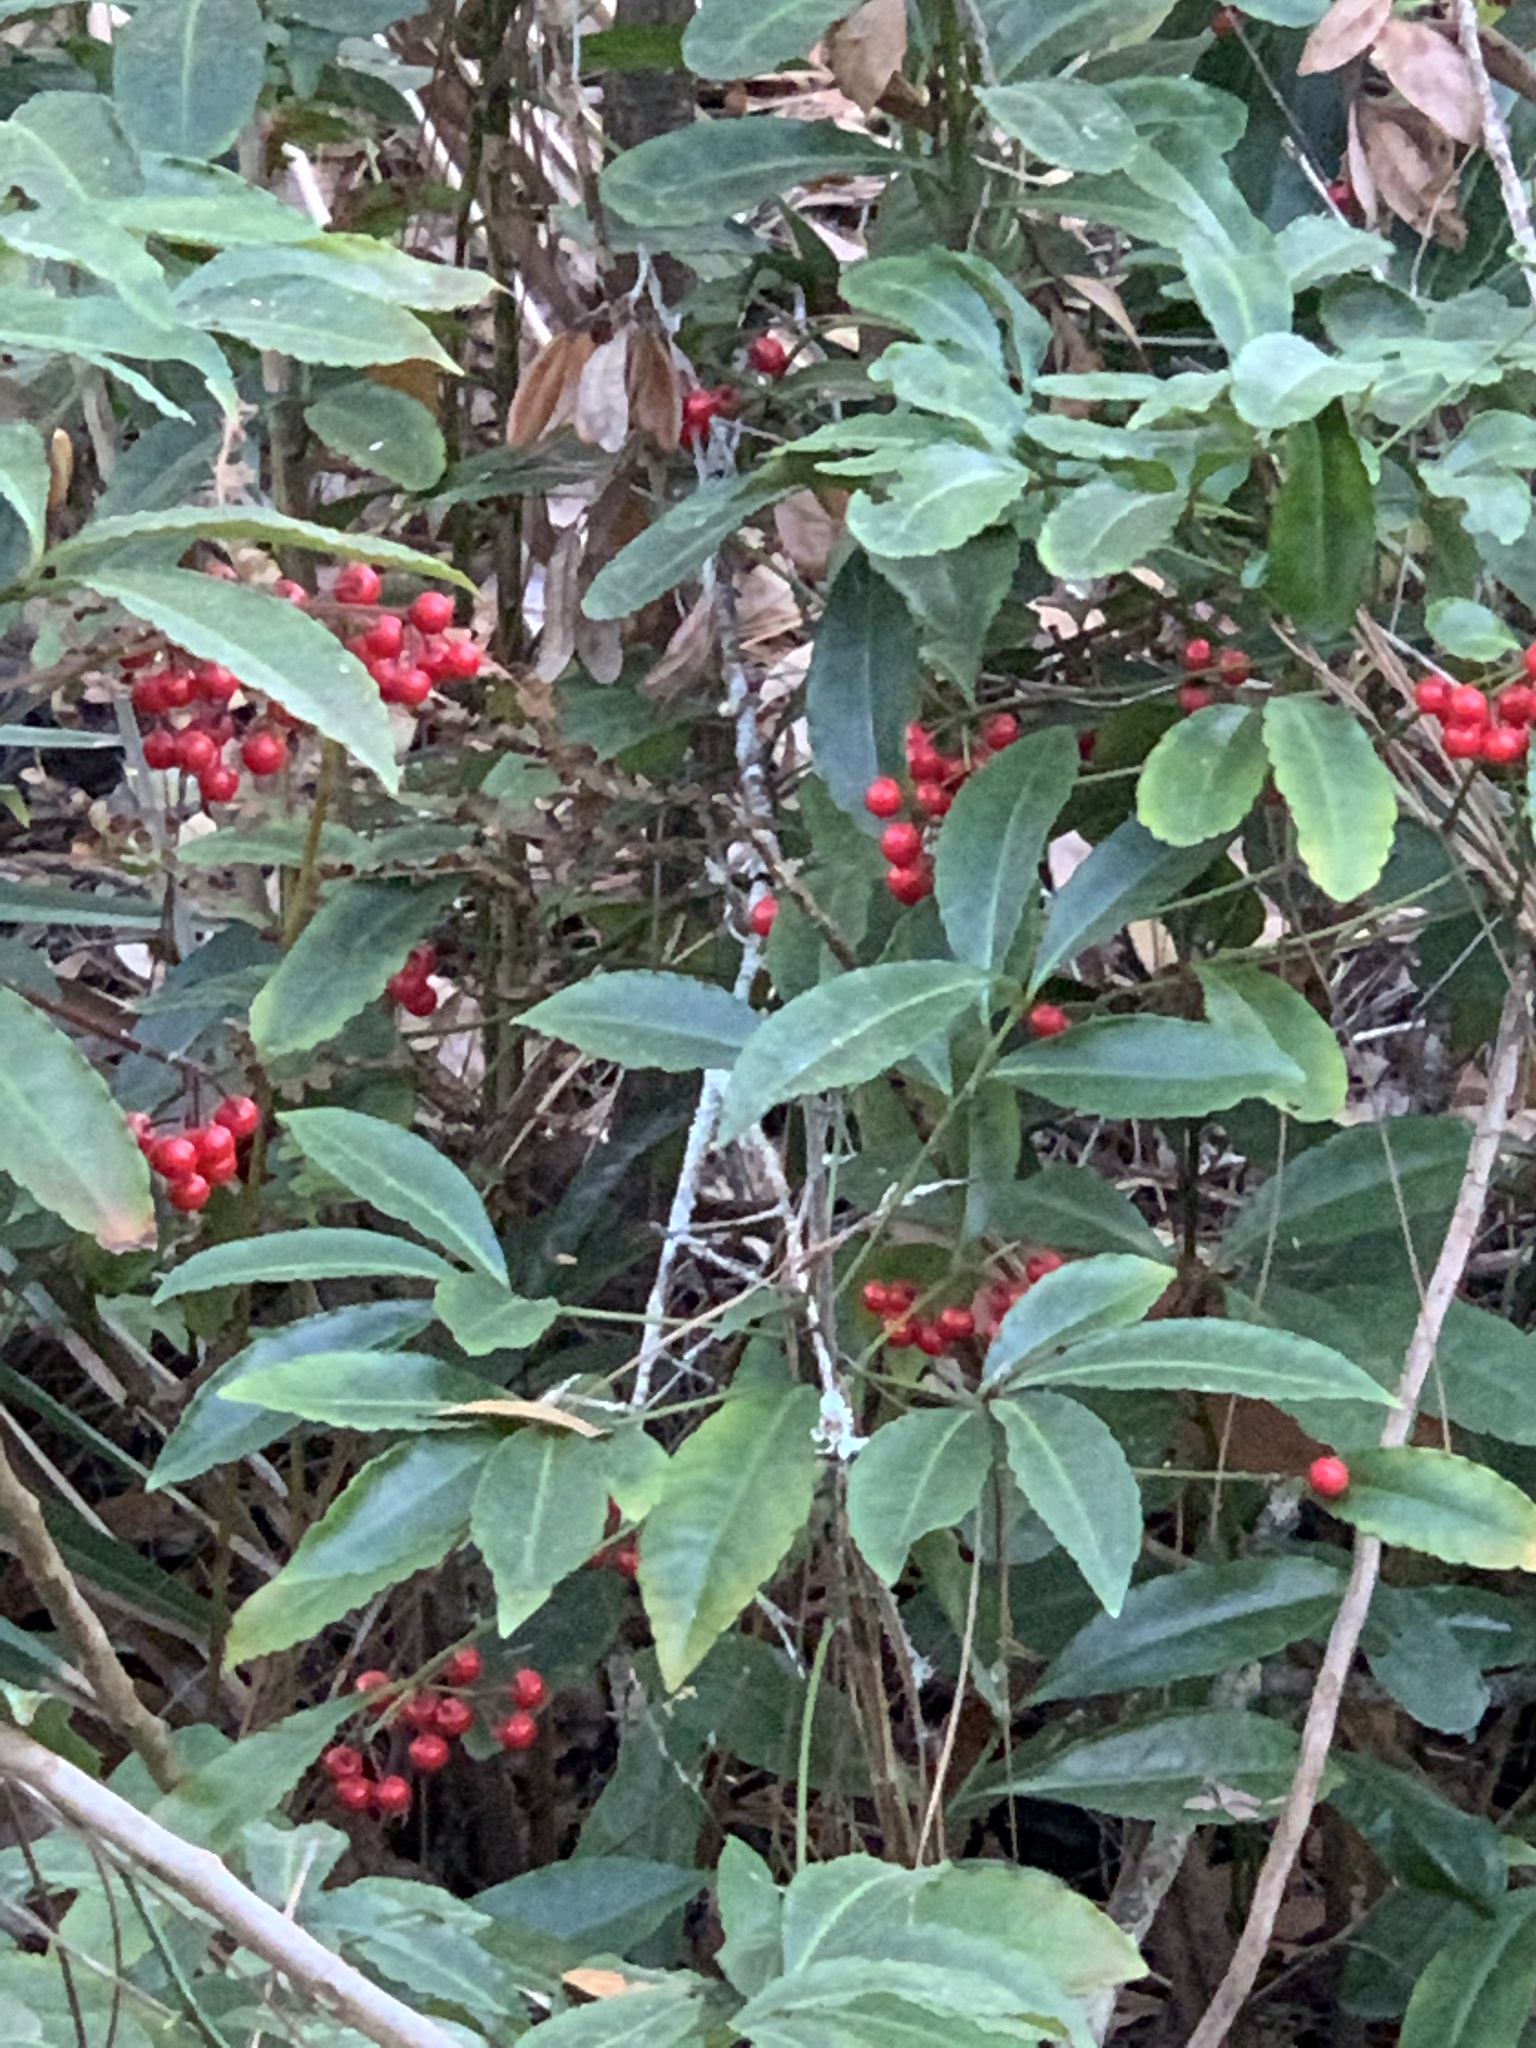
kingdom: Plantae
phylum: Tracheophyta
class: Magnoliopsida
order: Ericales
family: Primulaceae
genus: Ardisia
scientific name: Ardisia crenata
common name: Hen's eyes
